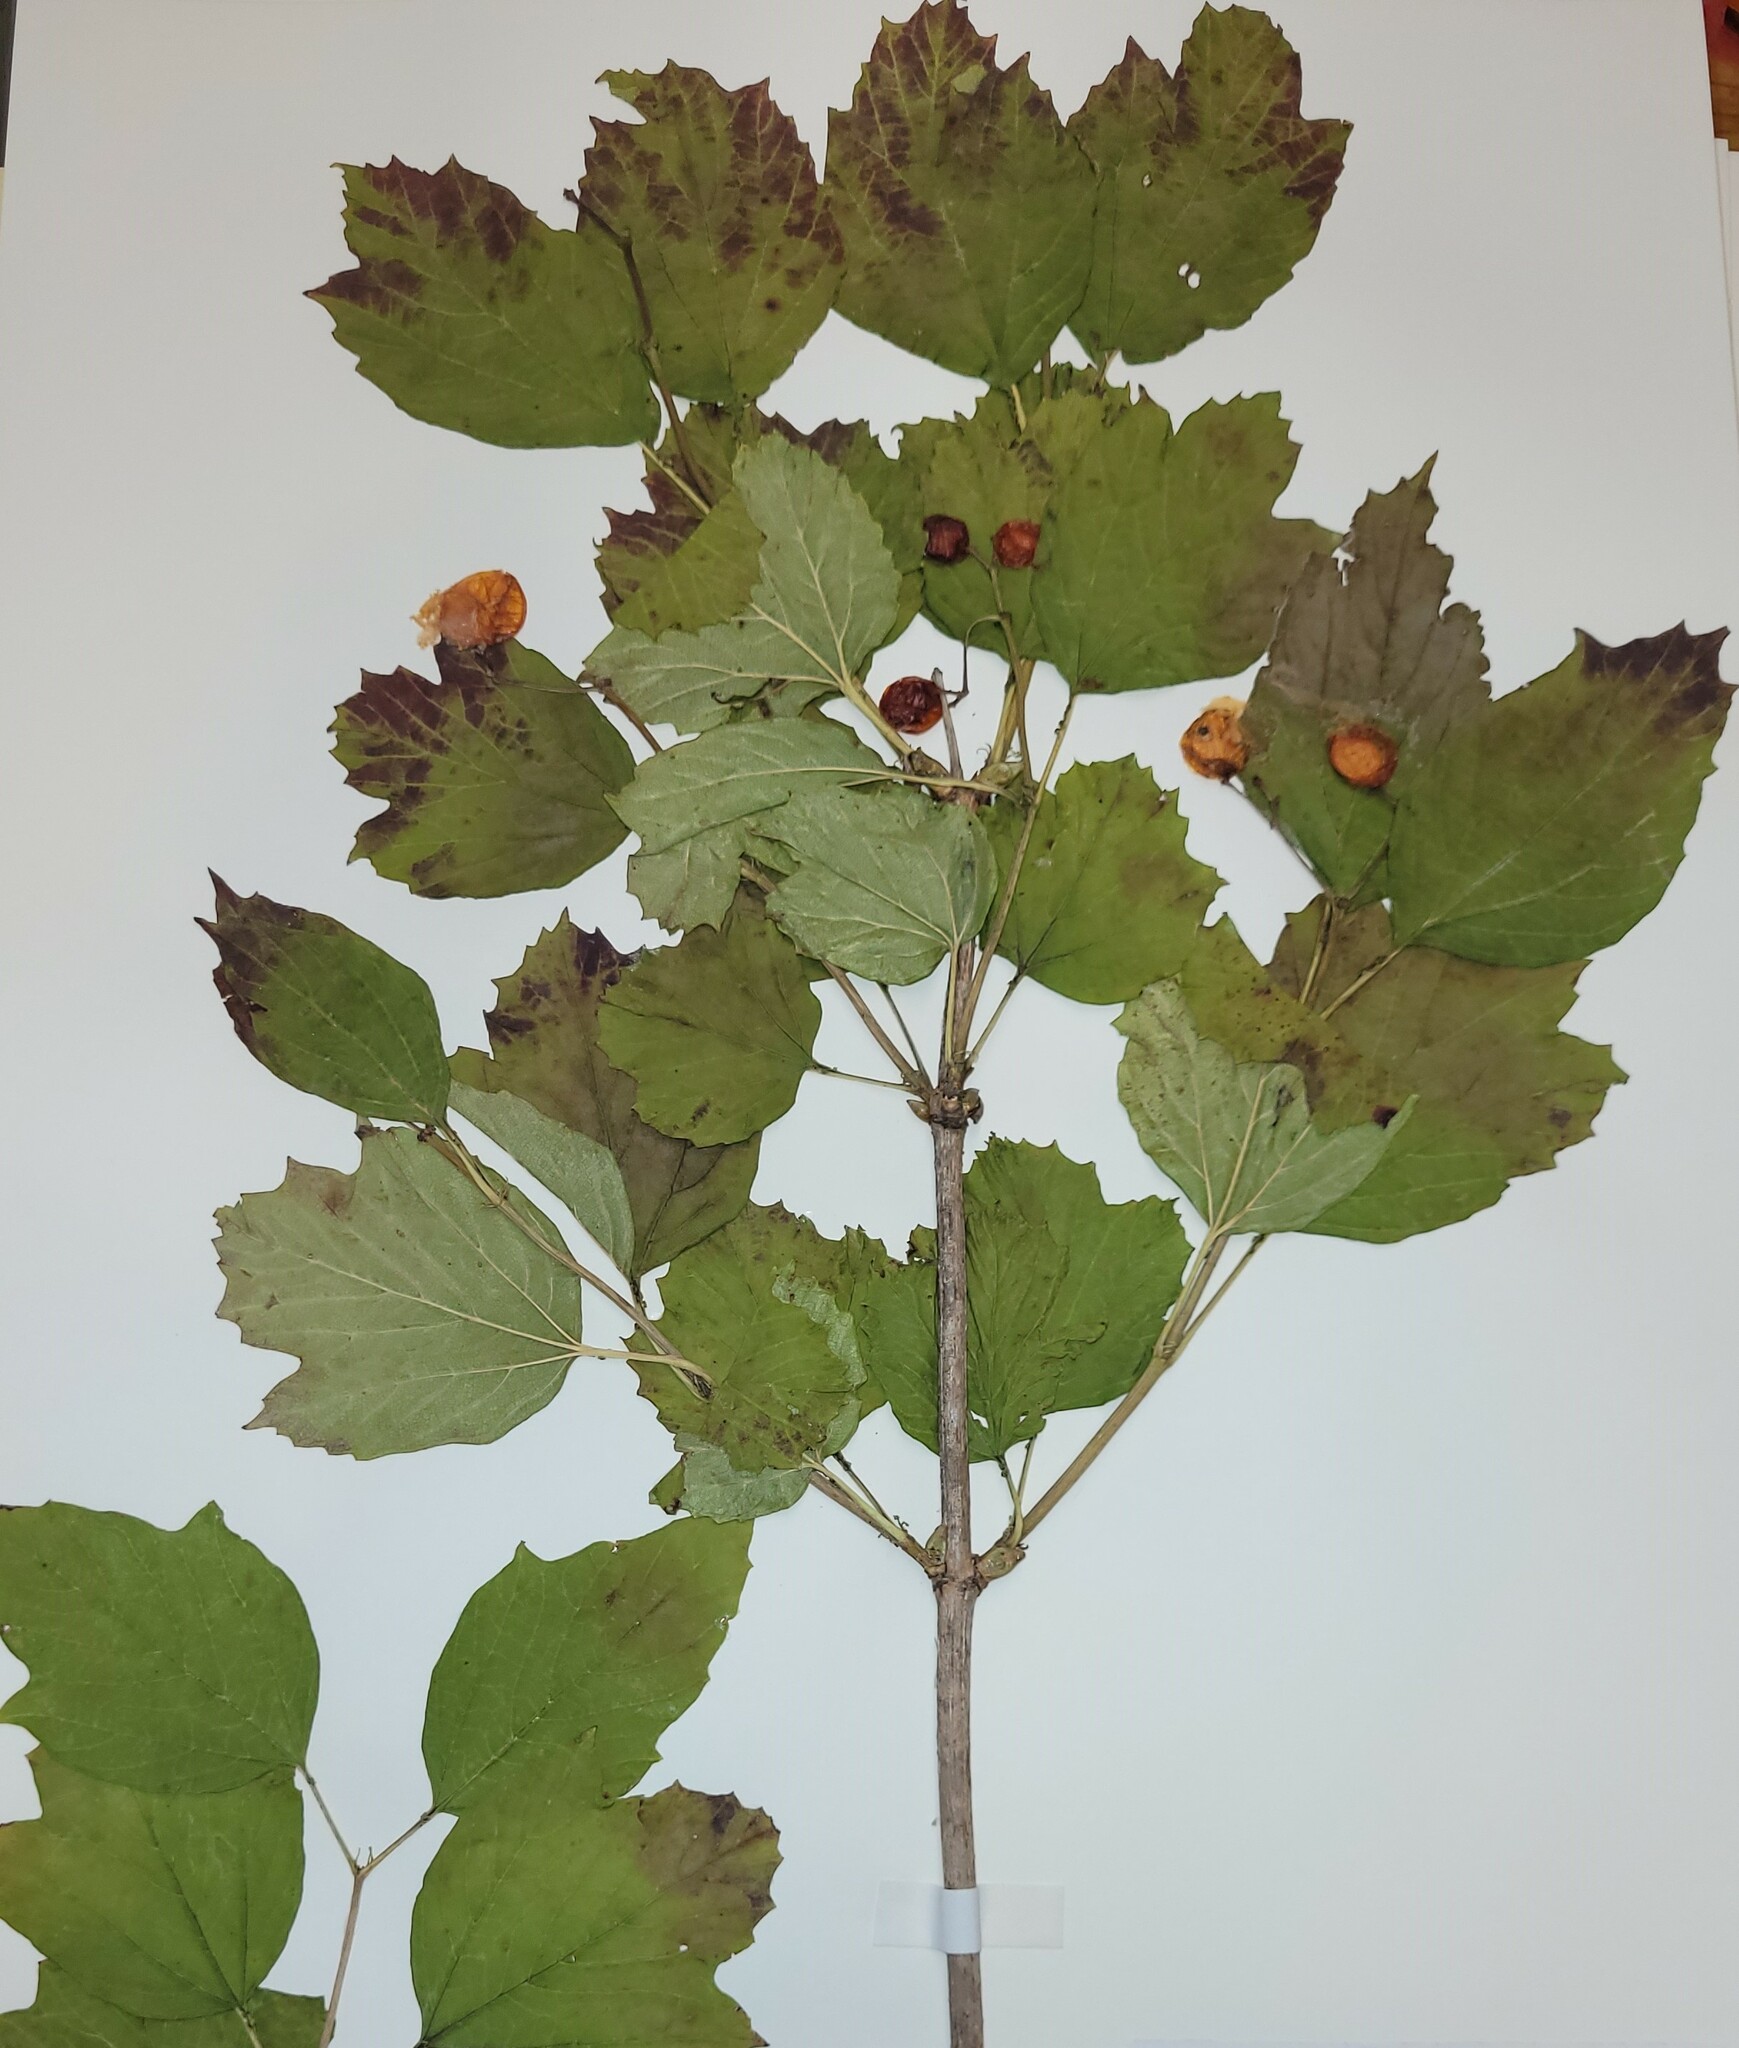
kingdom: Plantae
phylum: Tracheophyta
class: Magnoliopsida
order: Dipsacales
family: Viburnaceae
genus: Viburnum
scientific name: Viburnum opulus
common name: Guelder-rose
